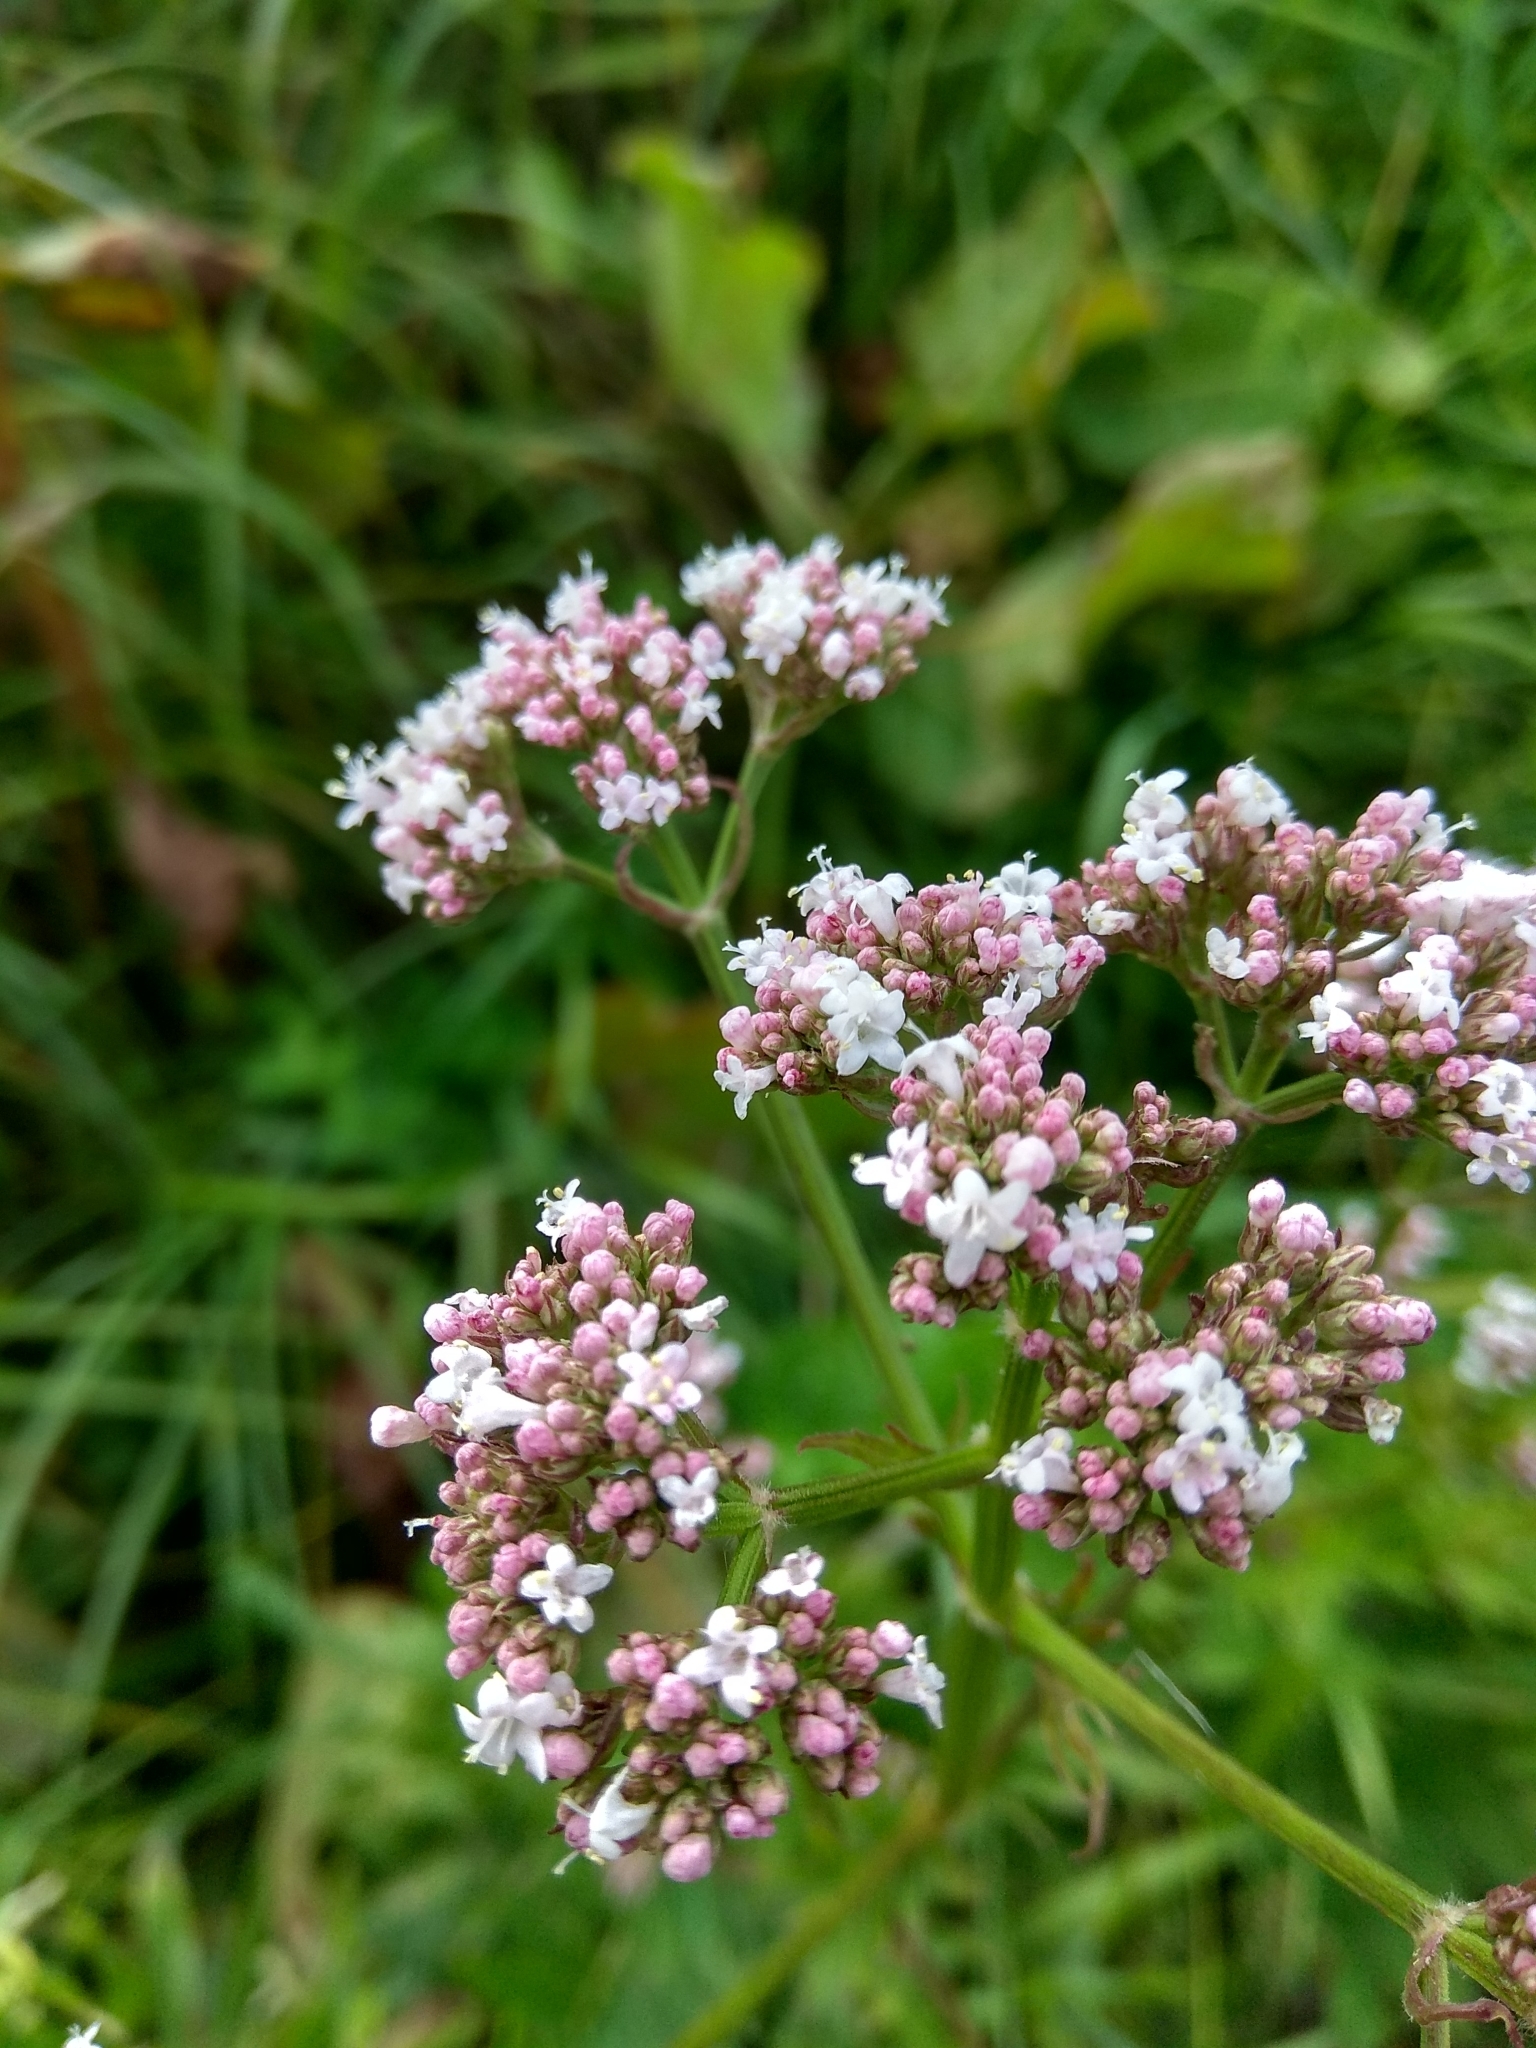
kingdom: Plantae
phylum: Tracheophyta
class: Magnoliopsida
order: Dipsacales
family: Caprifoliaceae
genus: Valeriana
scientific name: Valeriana officinalis
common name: Common valerian
